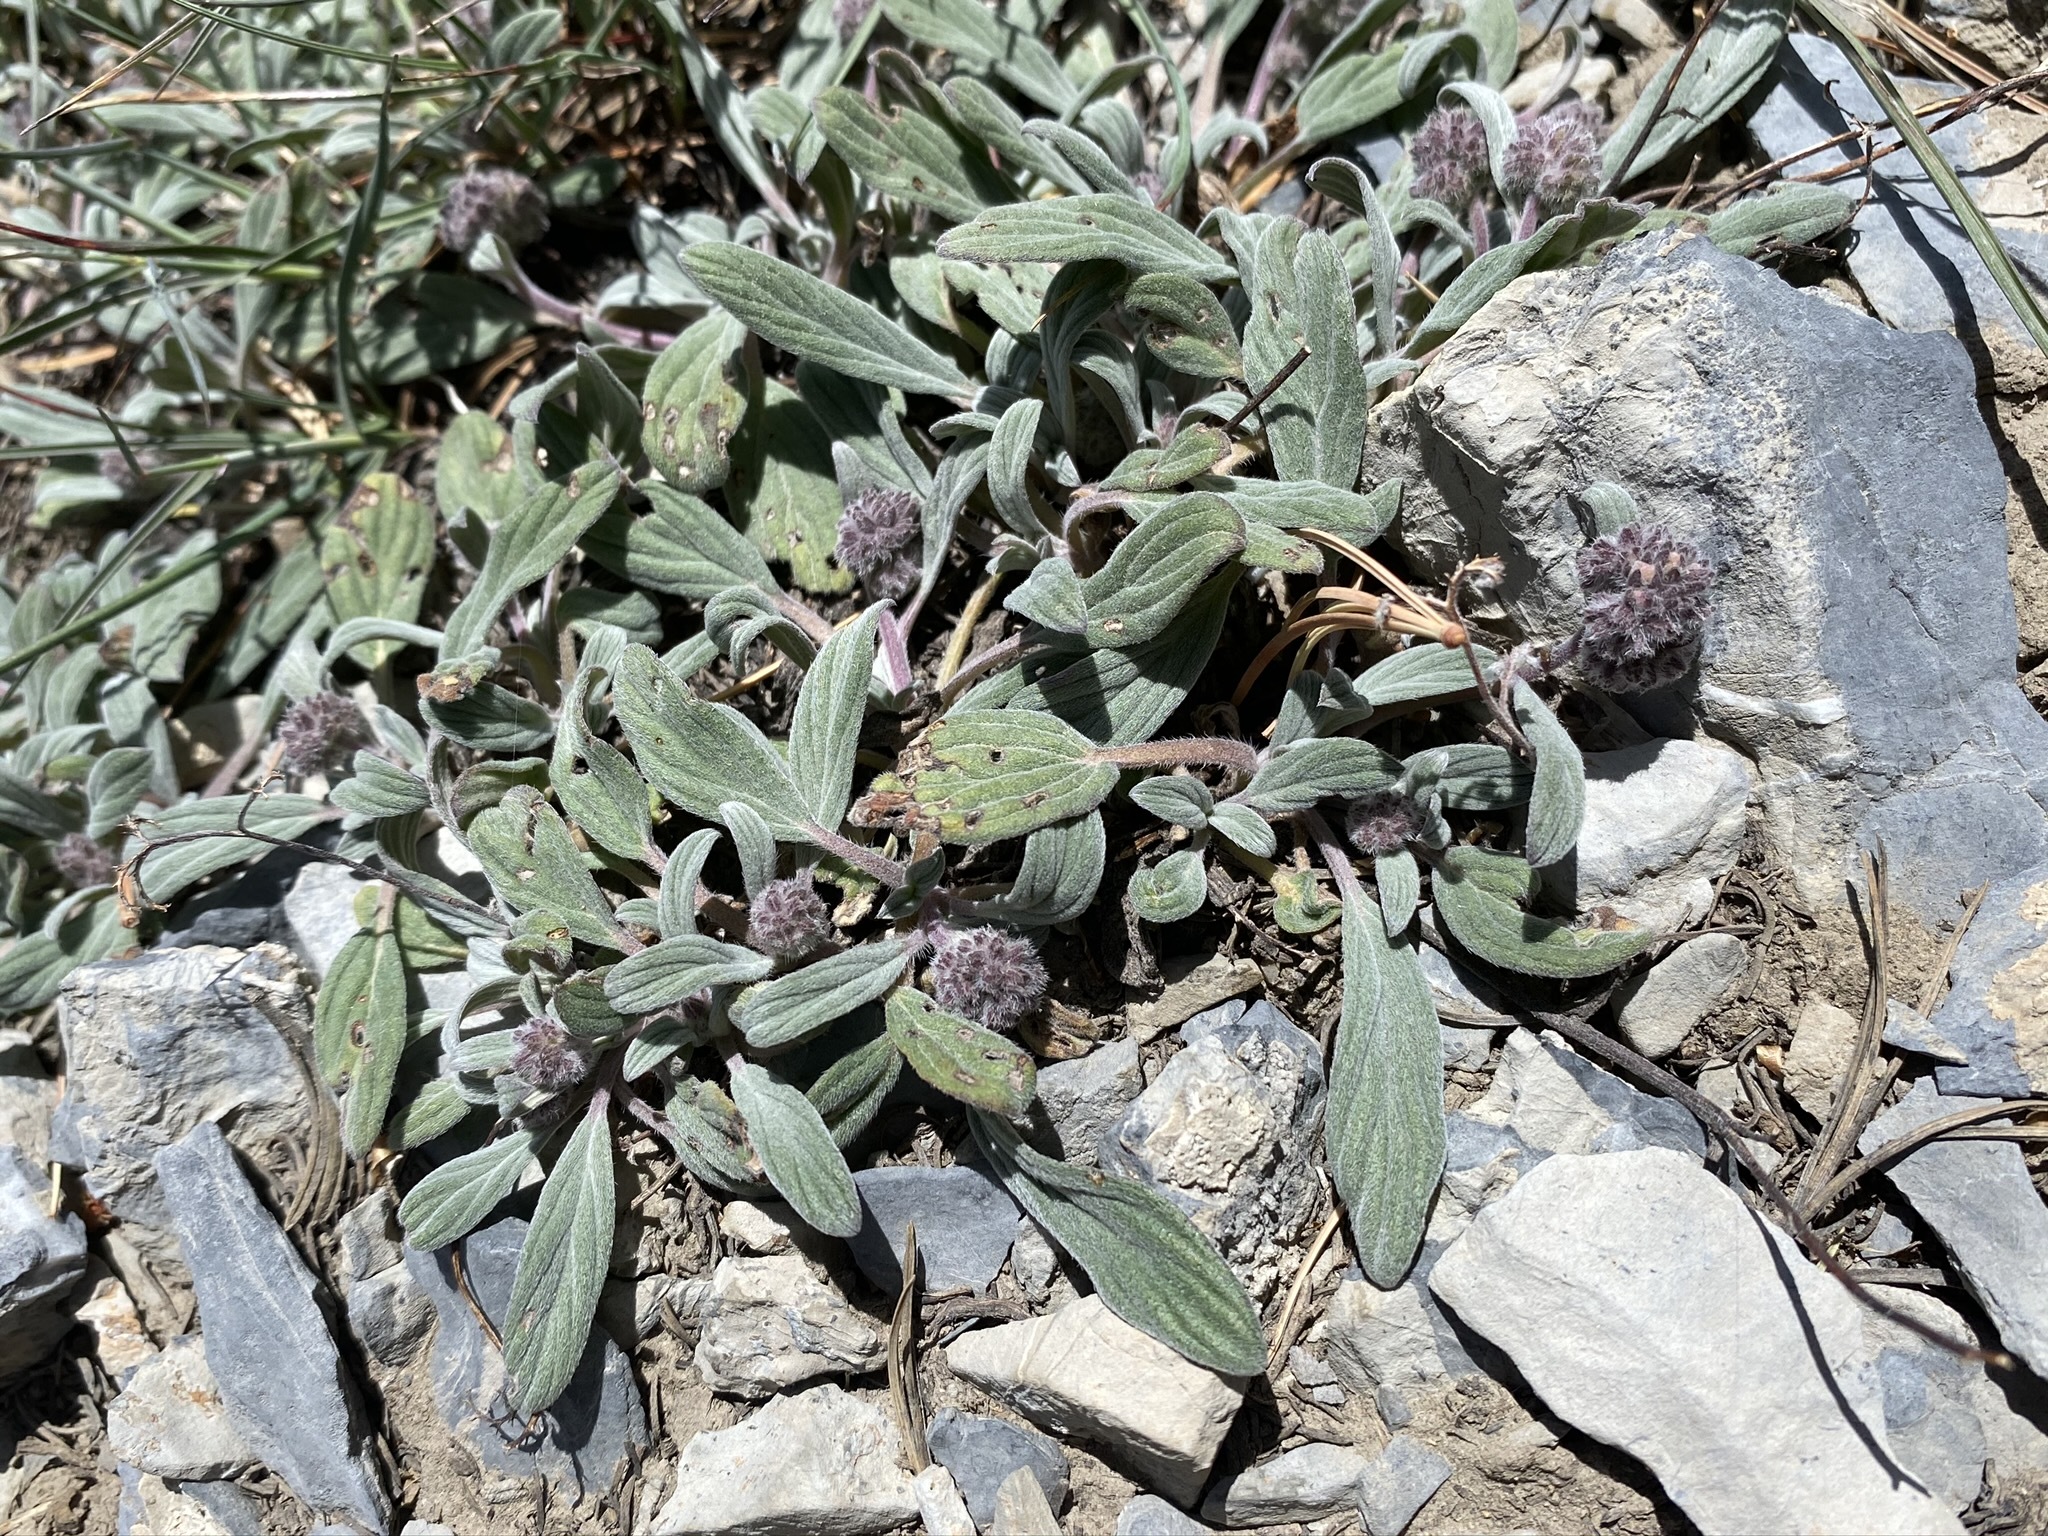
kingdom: Plantae
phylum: Tracheophyta
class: Magnoliopsida
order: Boraginales
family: Hydrophyllaceae
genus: Phacelia
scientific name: Phacelia hastata
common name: Silver-leaved phacelia
